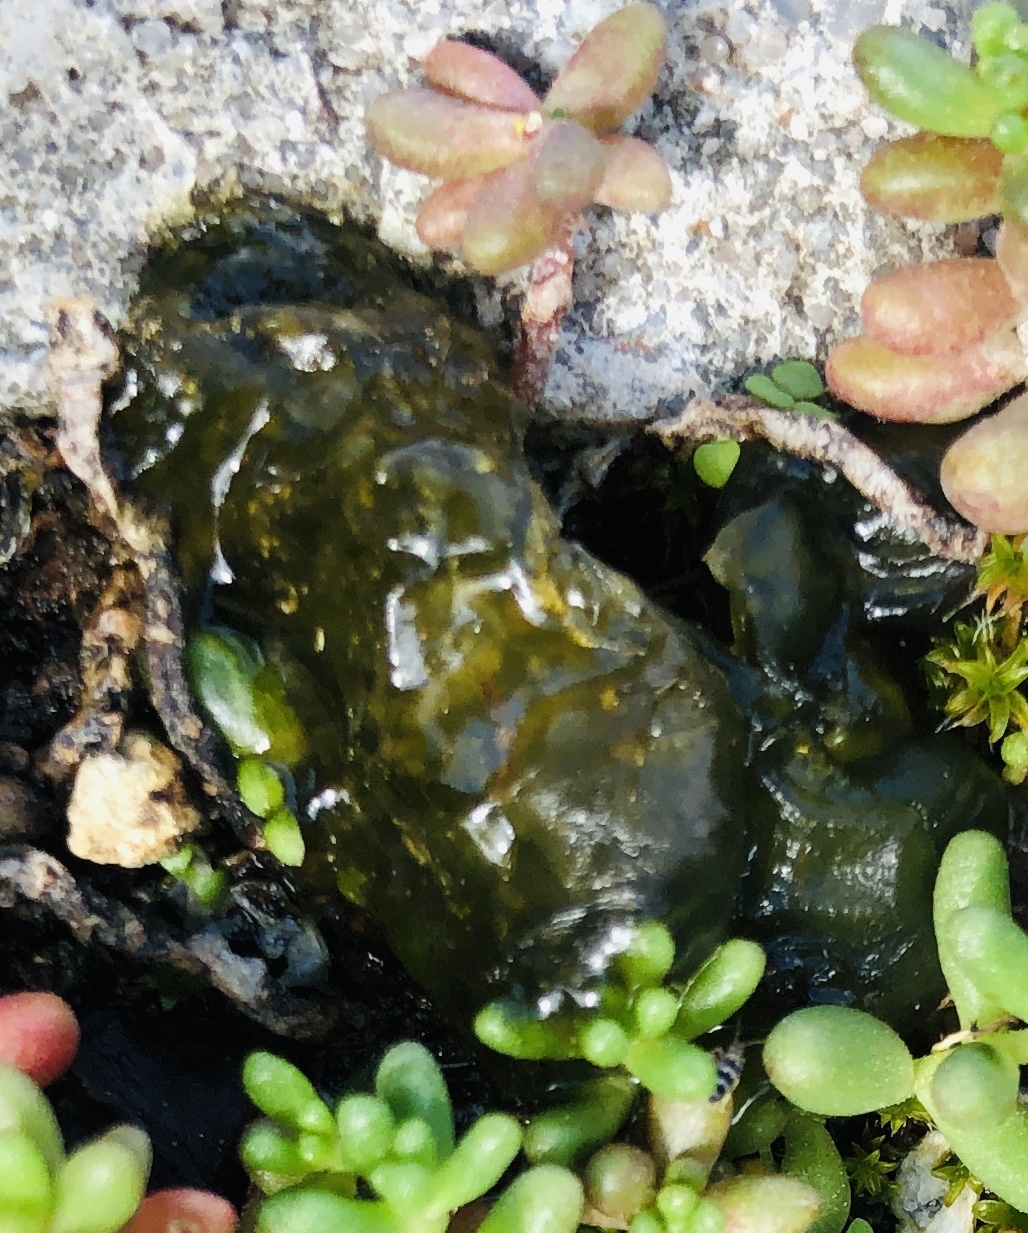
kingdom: Bacteria
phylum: Cyanobacteria
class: Cyanobacteriia
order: Cyanobacteriales
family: Nostocaceae
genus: Nostoc
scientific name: Nostoc commune
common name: Star jelly
